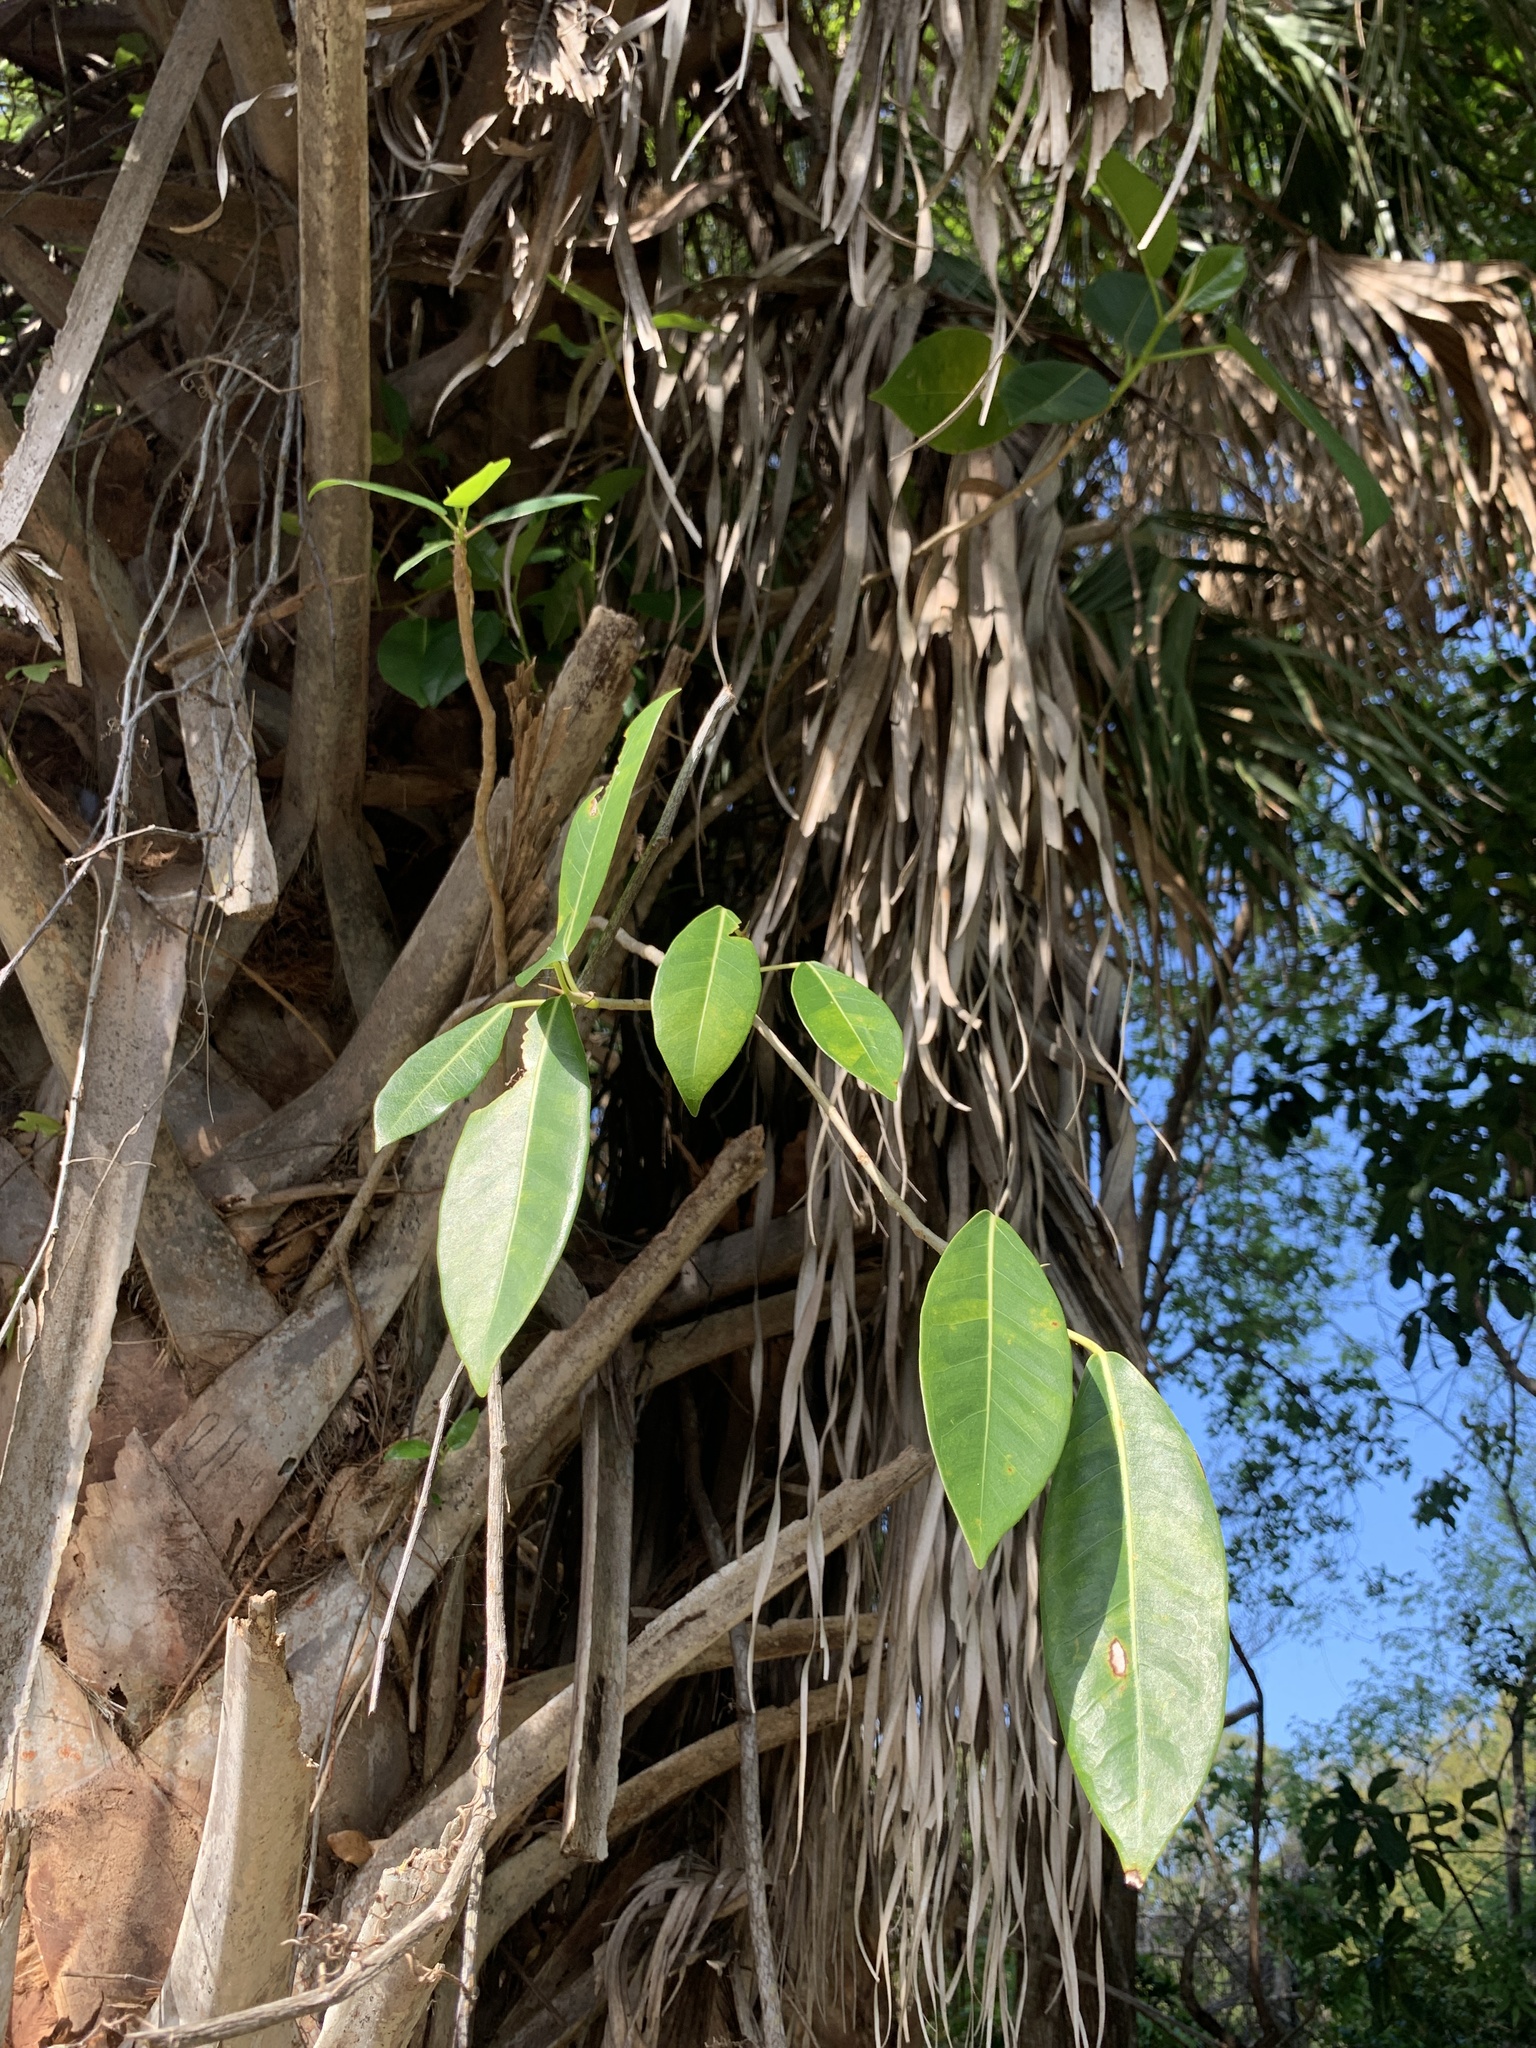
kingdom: Plantae
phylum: Tracheophyta
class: Magnoliopsida
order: Rosales
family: Moraceae
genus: Ficus
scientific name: Ficus aurea
